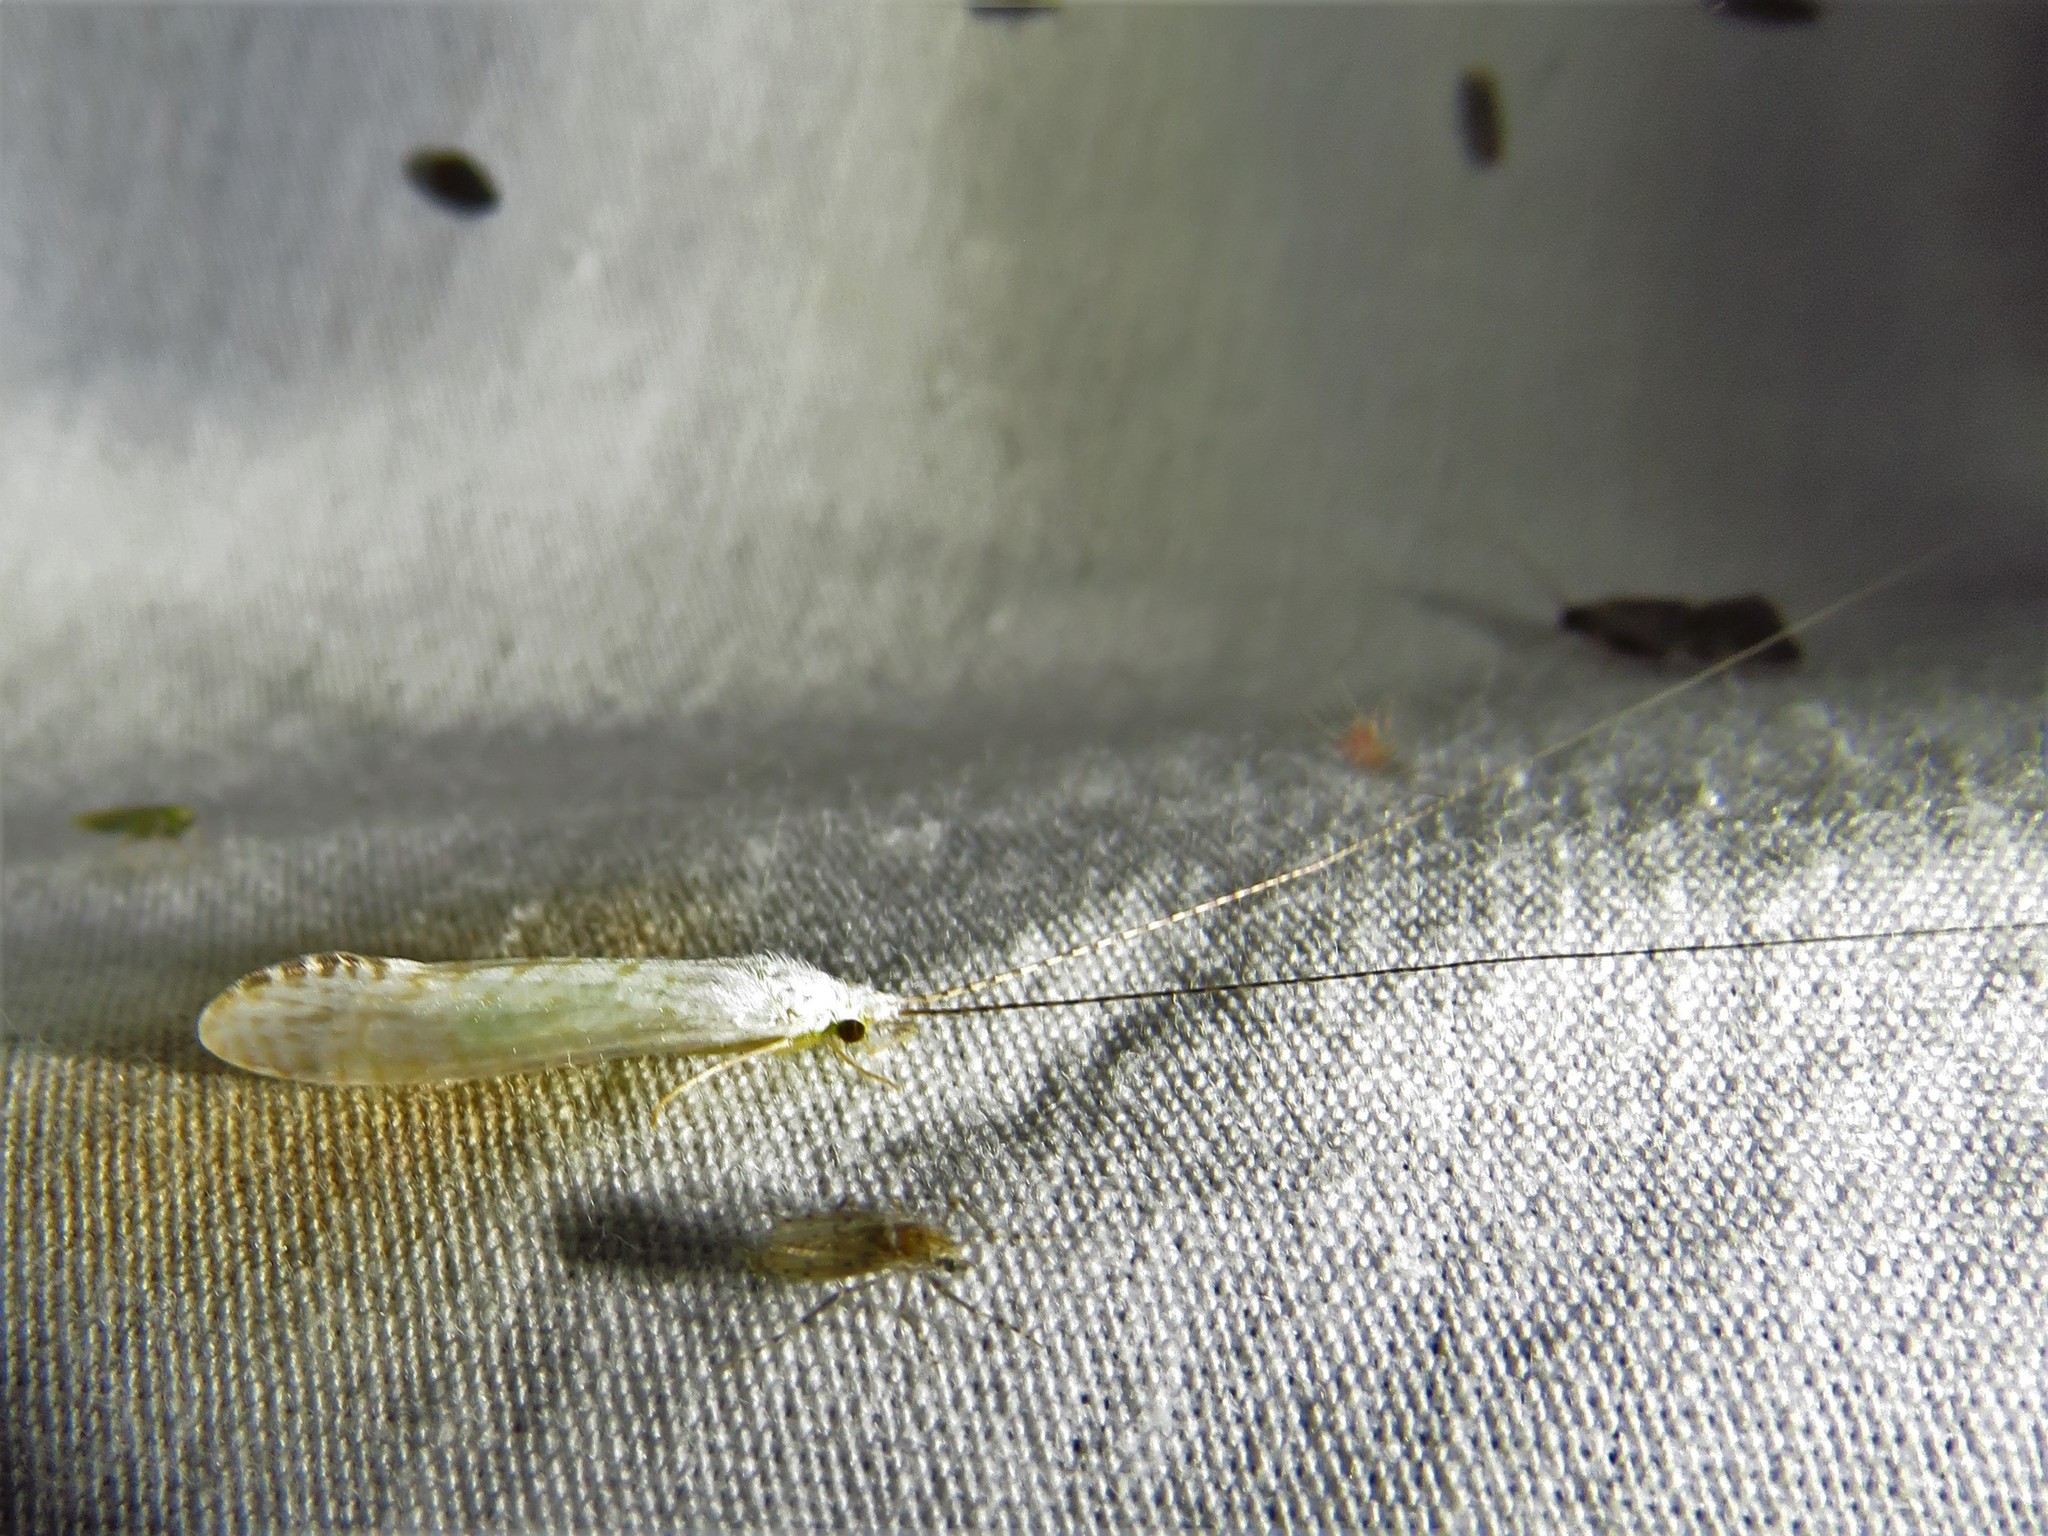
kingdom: Animalia
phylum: Arthropoda
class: Insecta
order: Trichoptera
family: Leptoceridae
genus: Nectopsyche
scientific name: Nectopsyche candida
